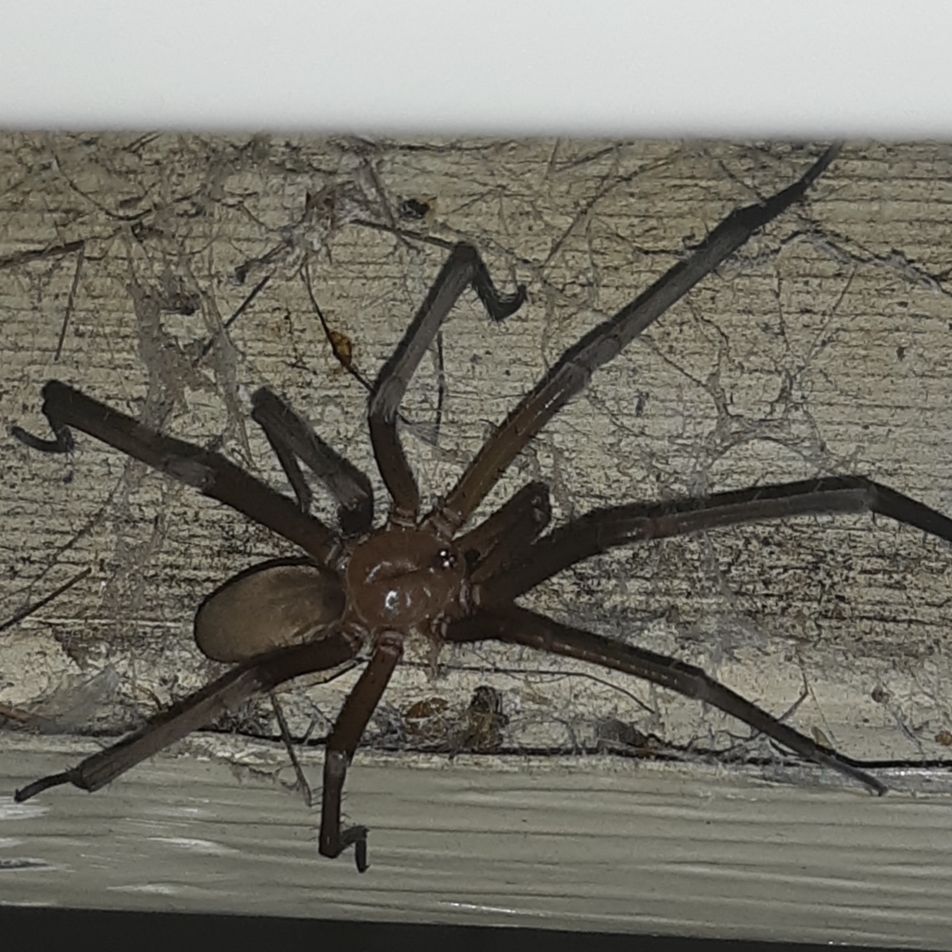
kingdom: Animalia
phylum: Arthropoda
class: Arachnida
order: Araneae
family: Filistatidae
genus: Kukulcania
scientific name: Kukulcania hibernalis
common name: Crevice weaver
